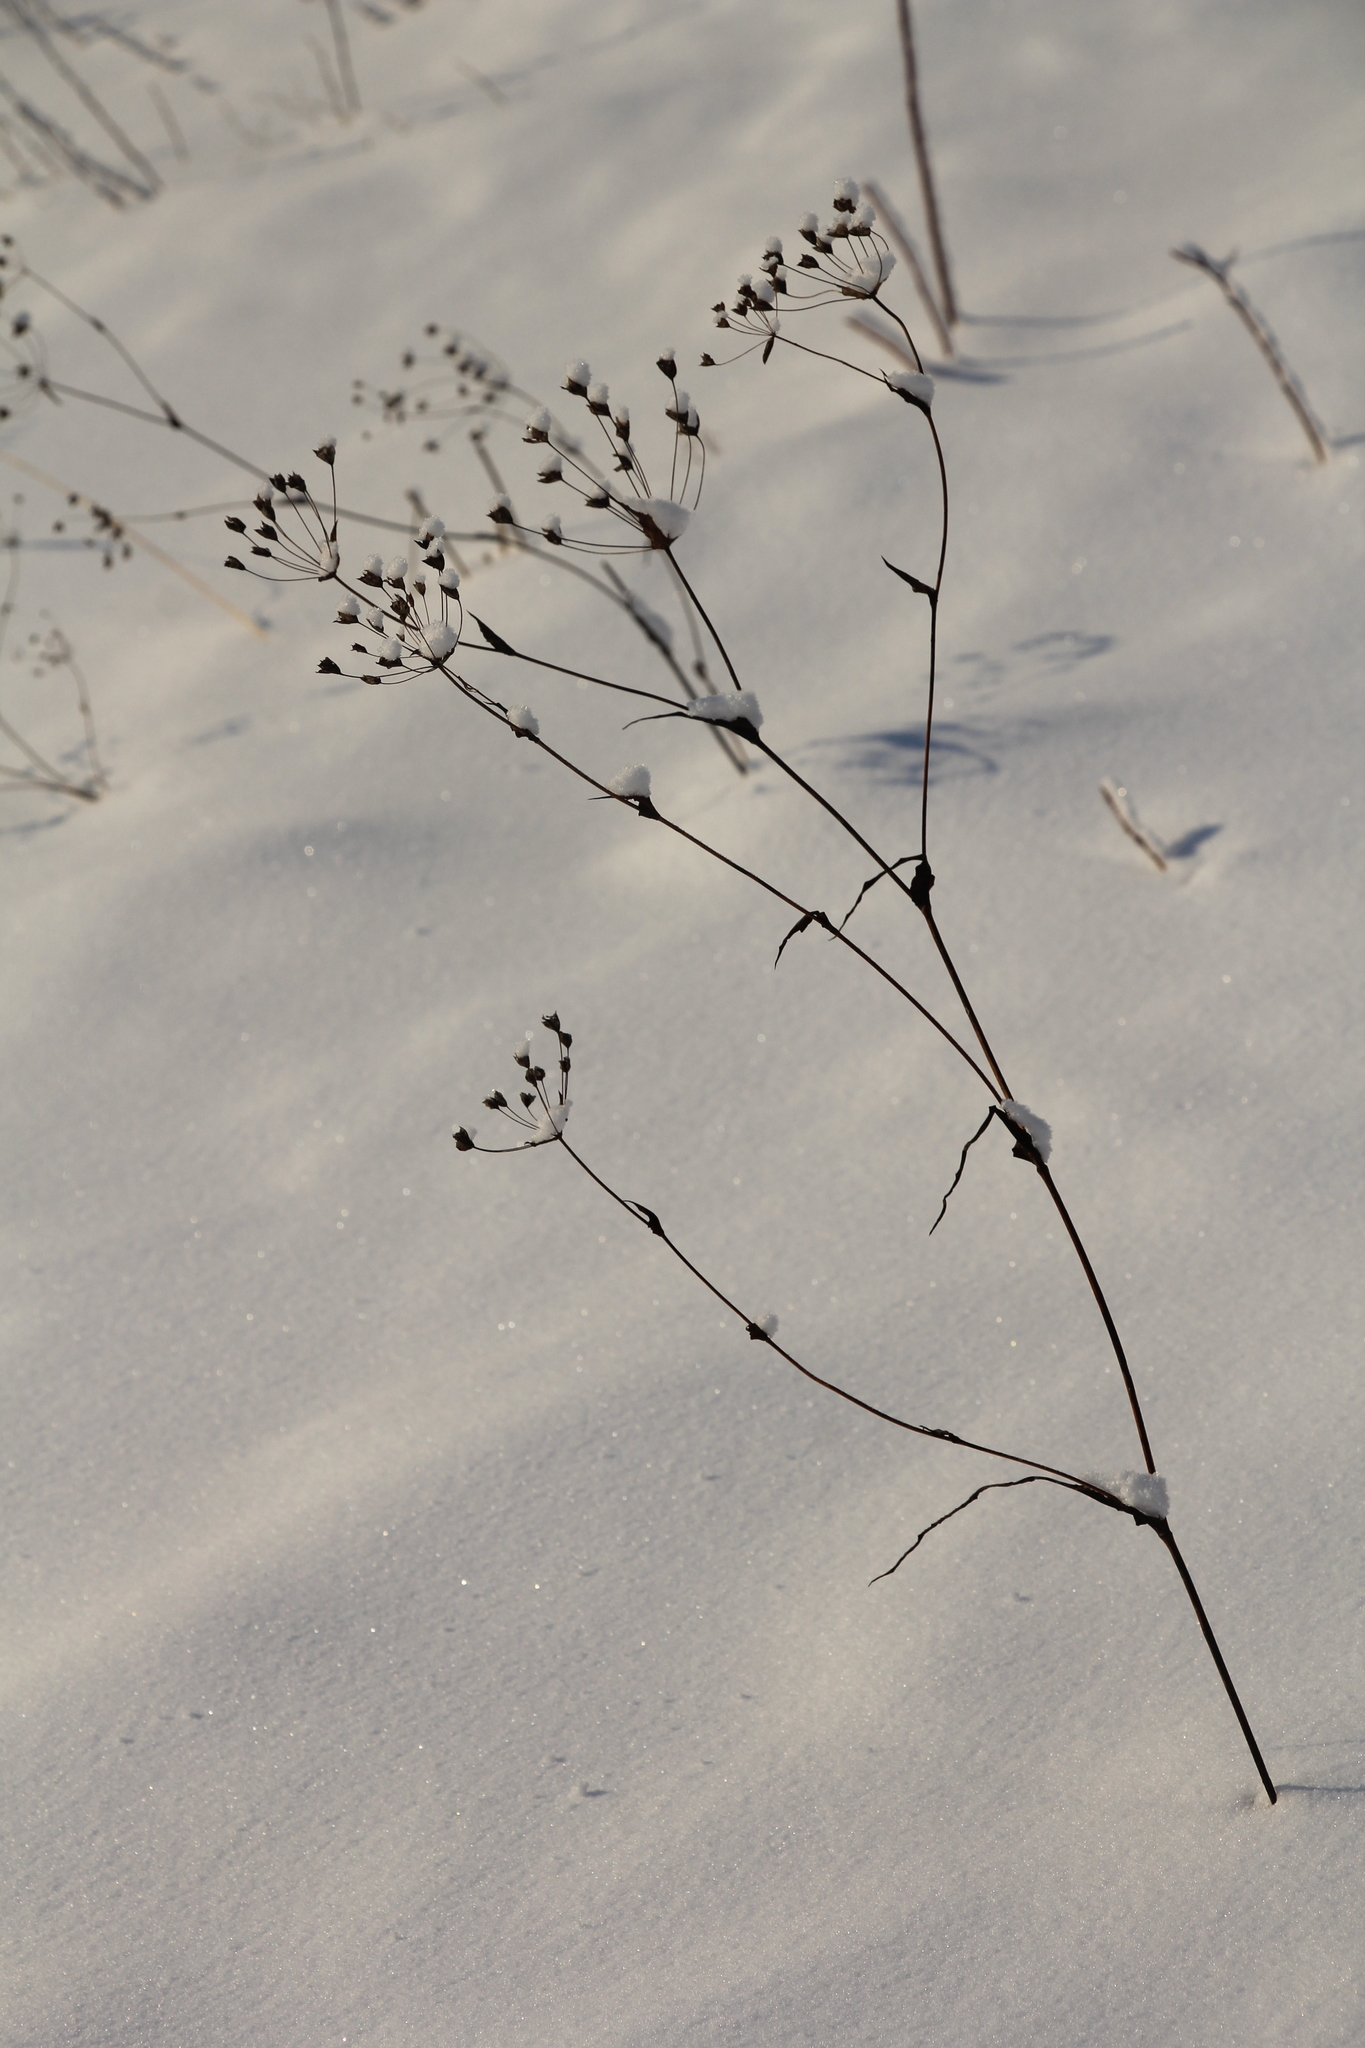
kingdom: Plantae
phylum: Tracheophyta
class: Magnoliopsida
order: Apiales
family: Apiaceae
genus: Bupleurum
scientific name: Bupleurum multinerve
